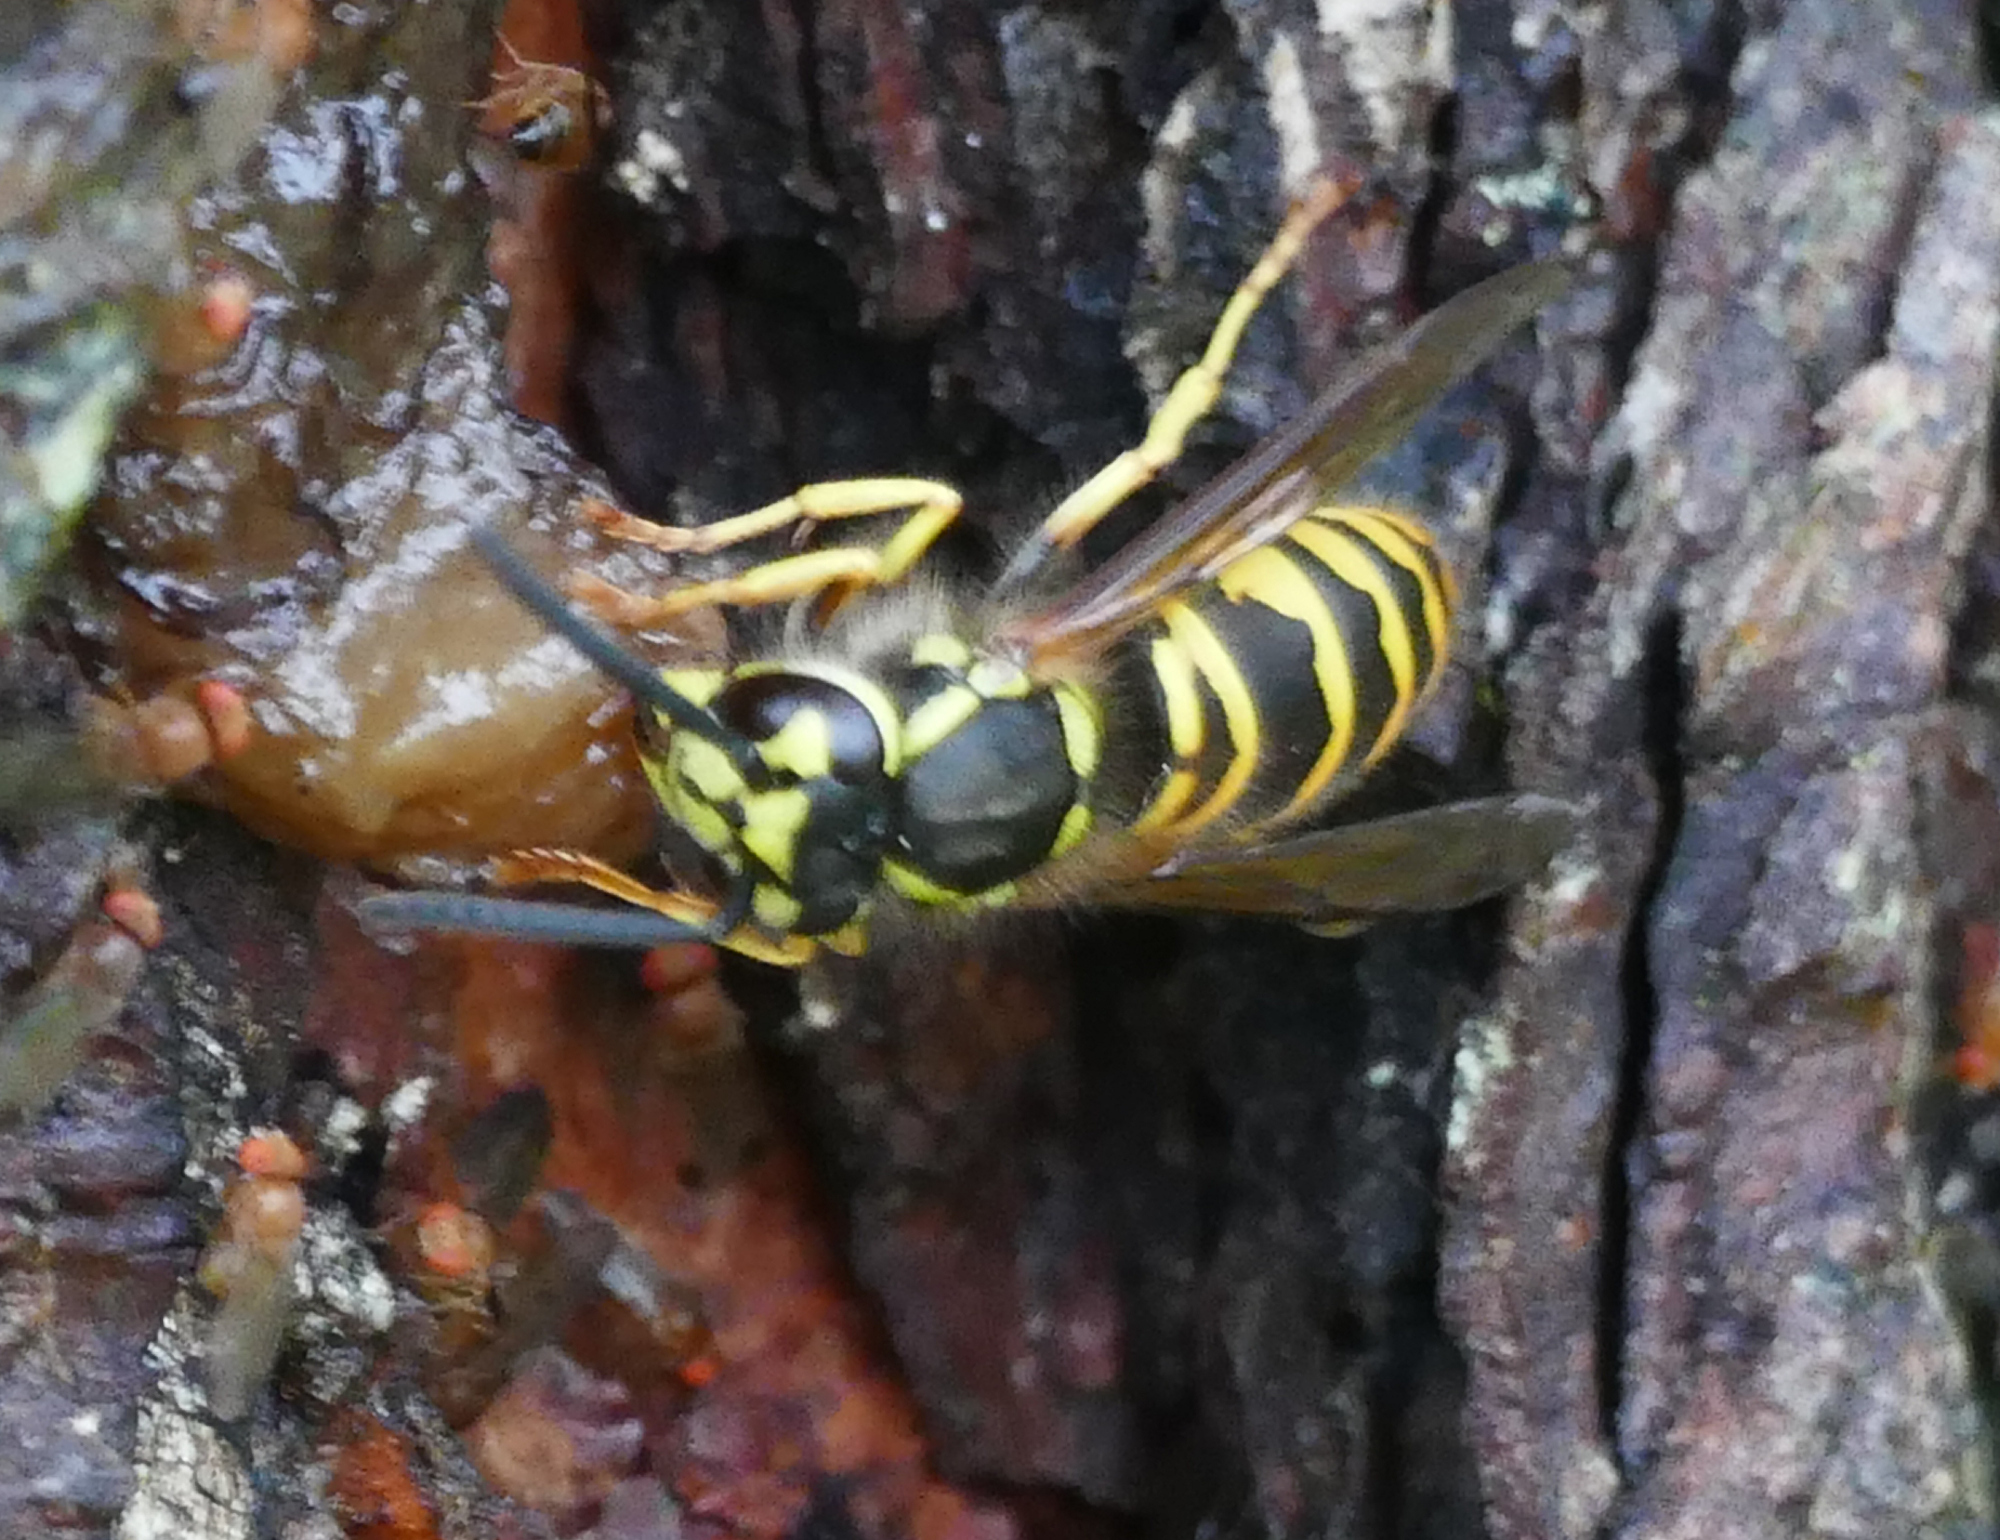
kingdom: Animalia
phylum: Arthropoda
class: Insecta
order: Hymenoptera
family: Vespidae
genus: Vespula
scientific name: Vespula maculifrons
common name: Eastern yellowjacket
